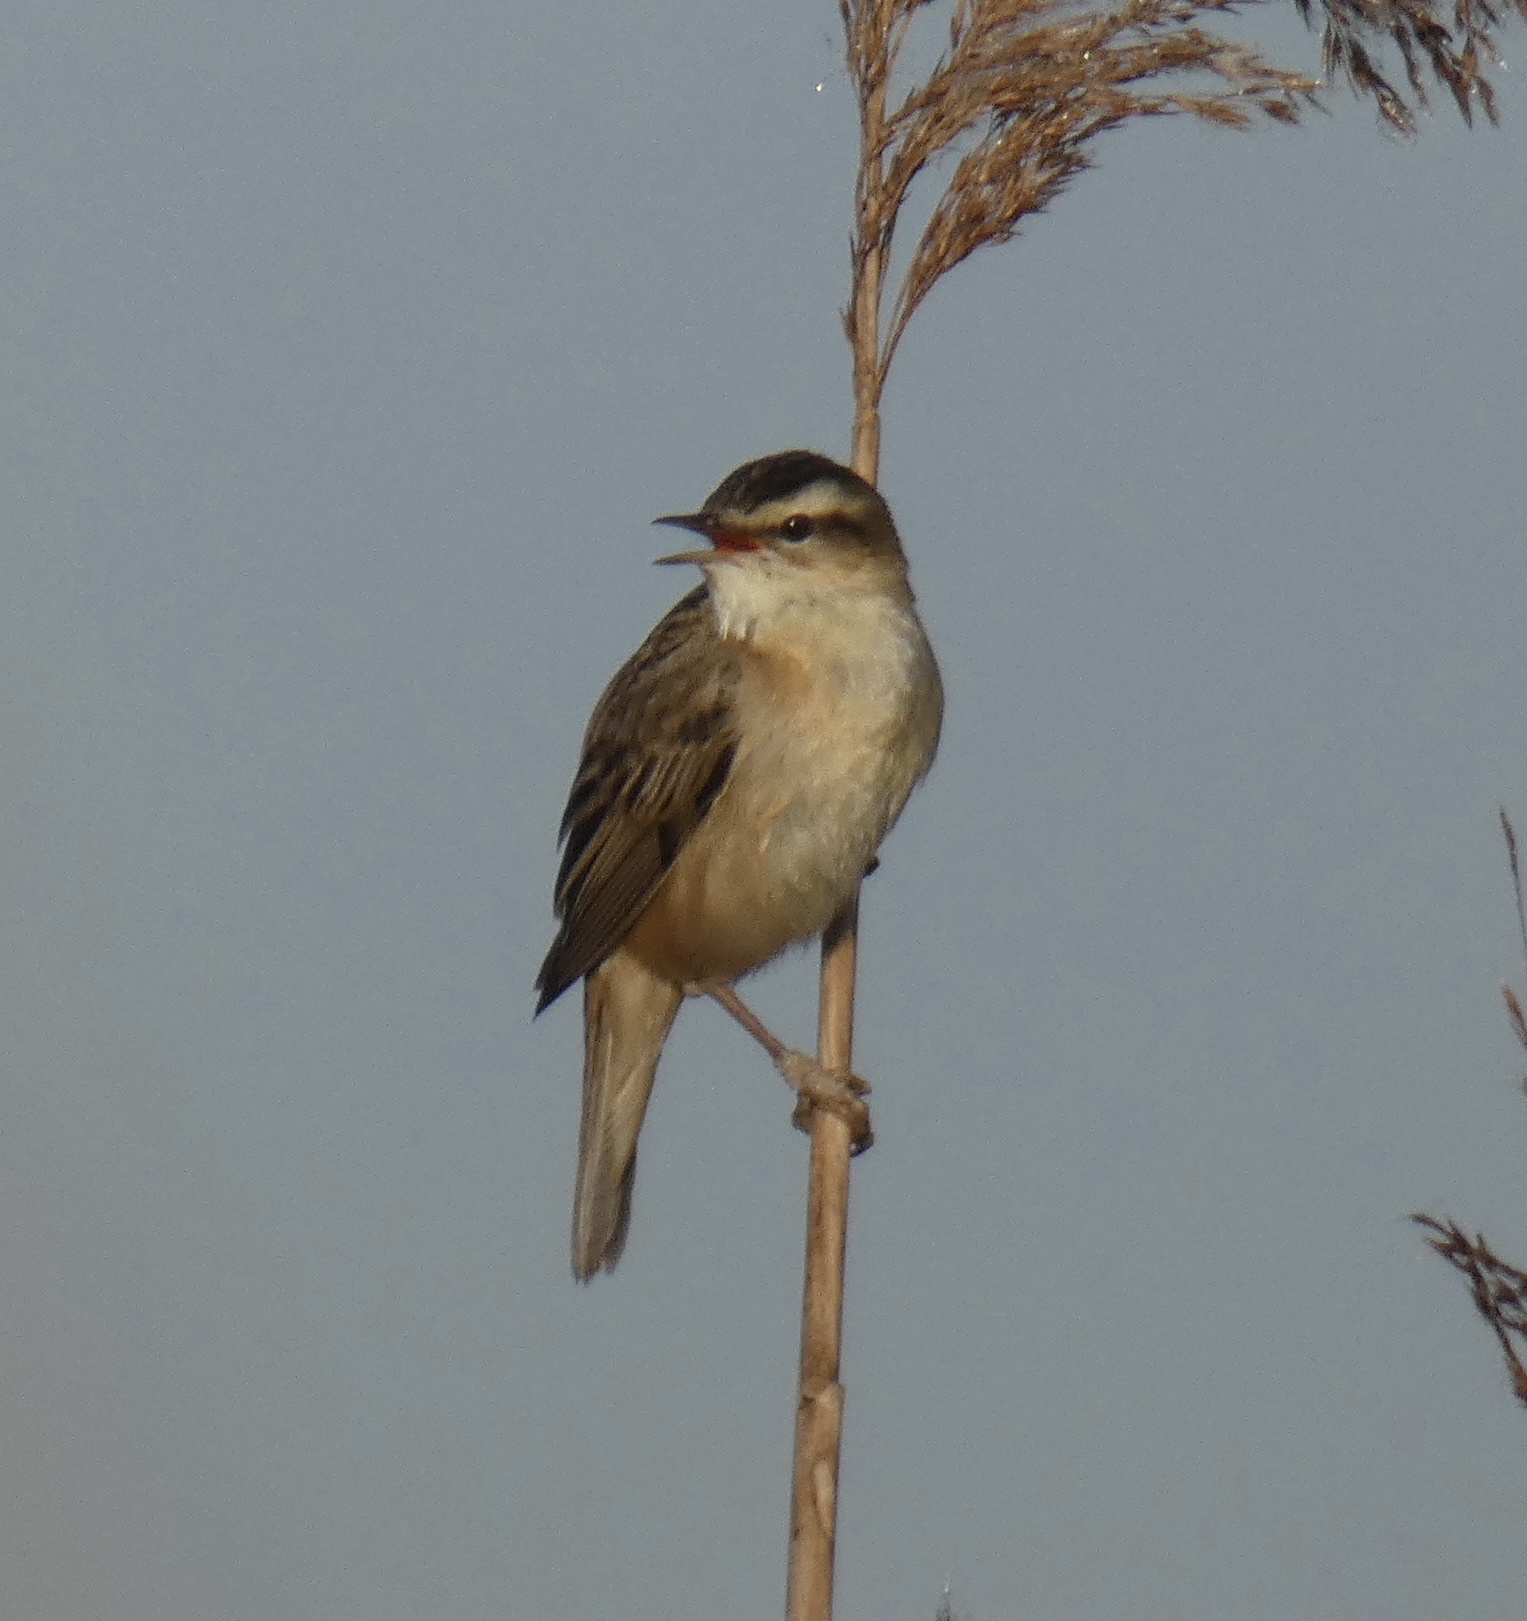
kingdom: Animalia
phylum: Chordata
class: Aves
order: Passeriformes
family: Acrocephalidae
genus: Acrocephalus
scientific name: Acrocephalus schoenobaenus
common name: Sedge warbler
